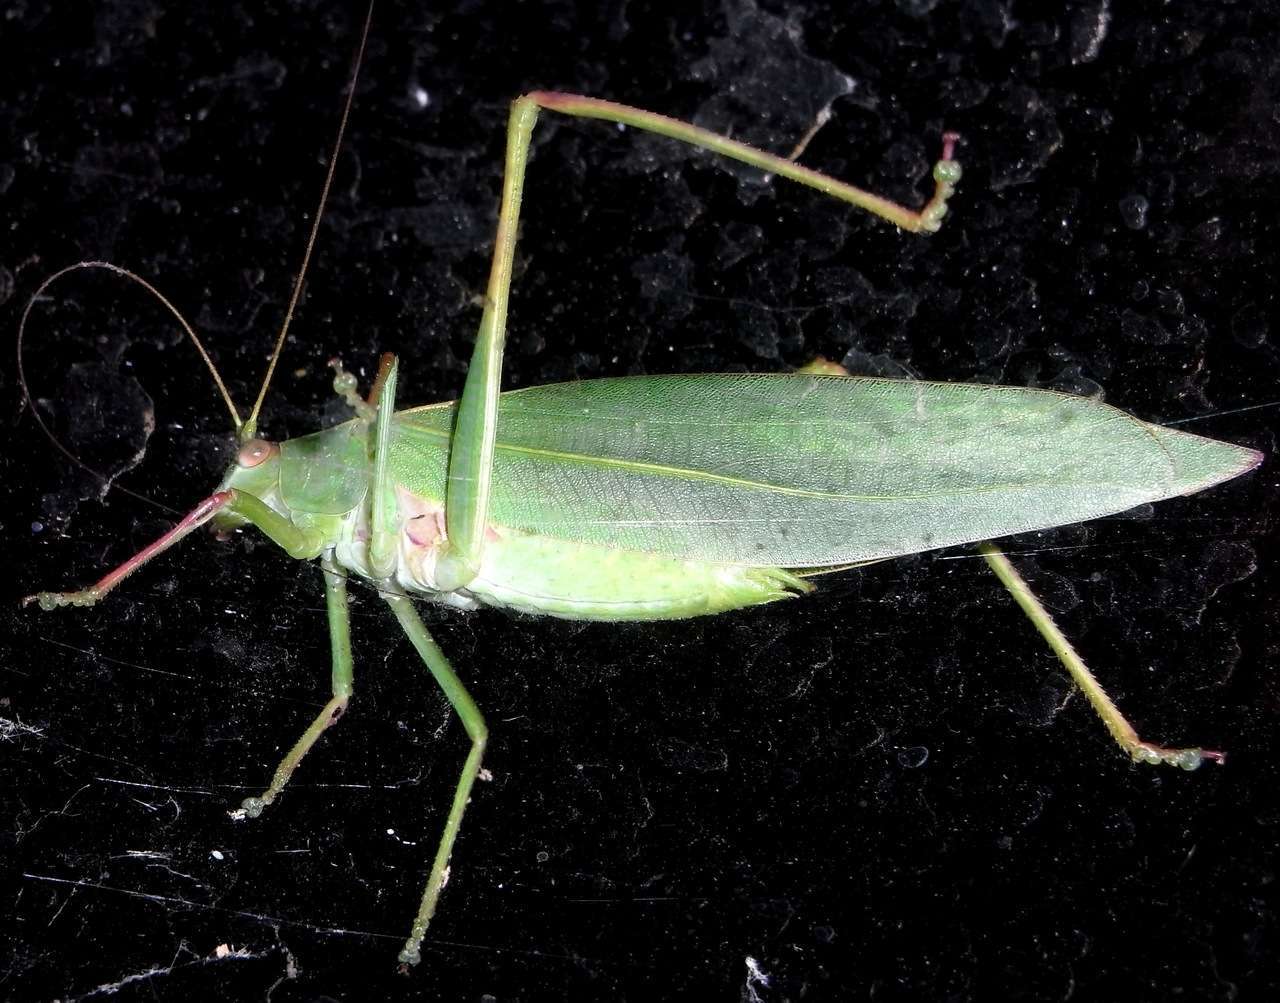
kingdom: Animalia
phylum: Arthropoda
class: Insecta
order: Orthoptera
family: Tettigoniidae
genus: Torbia
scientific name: Torbia viridissima
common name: Non-predaceous gum leaf katydid
